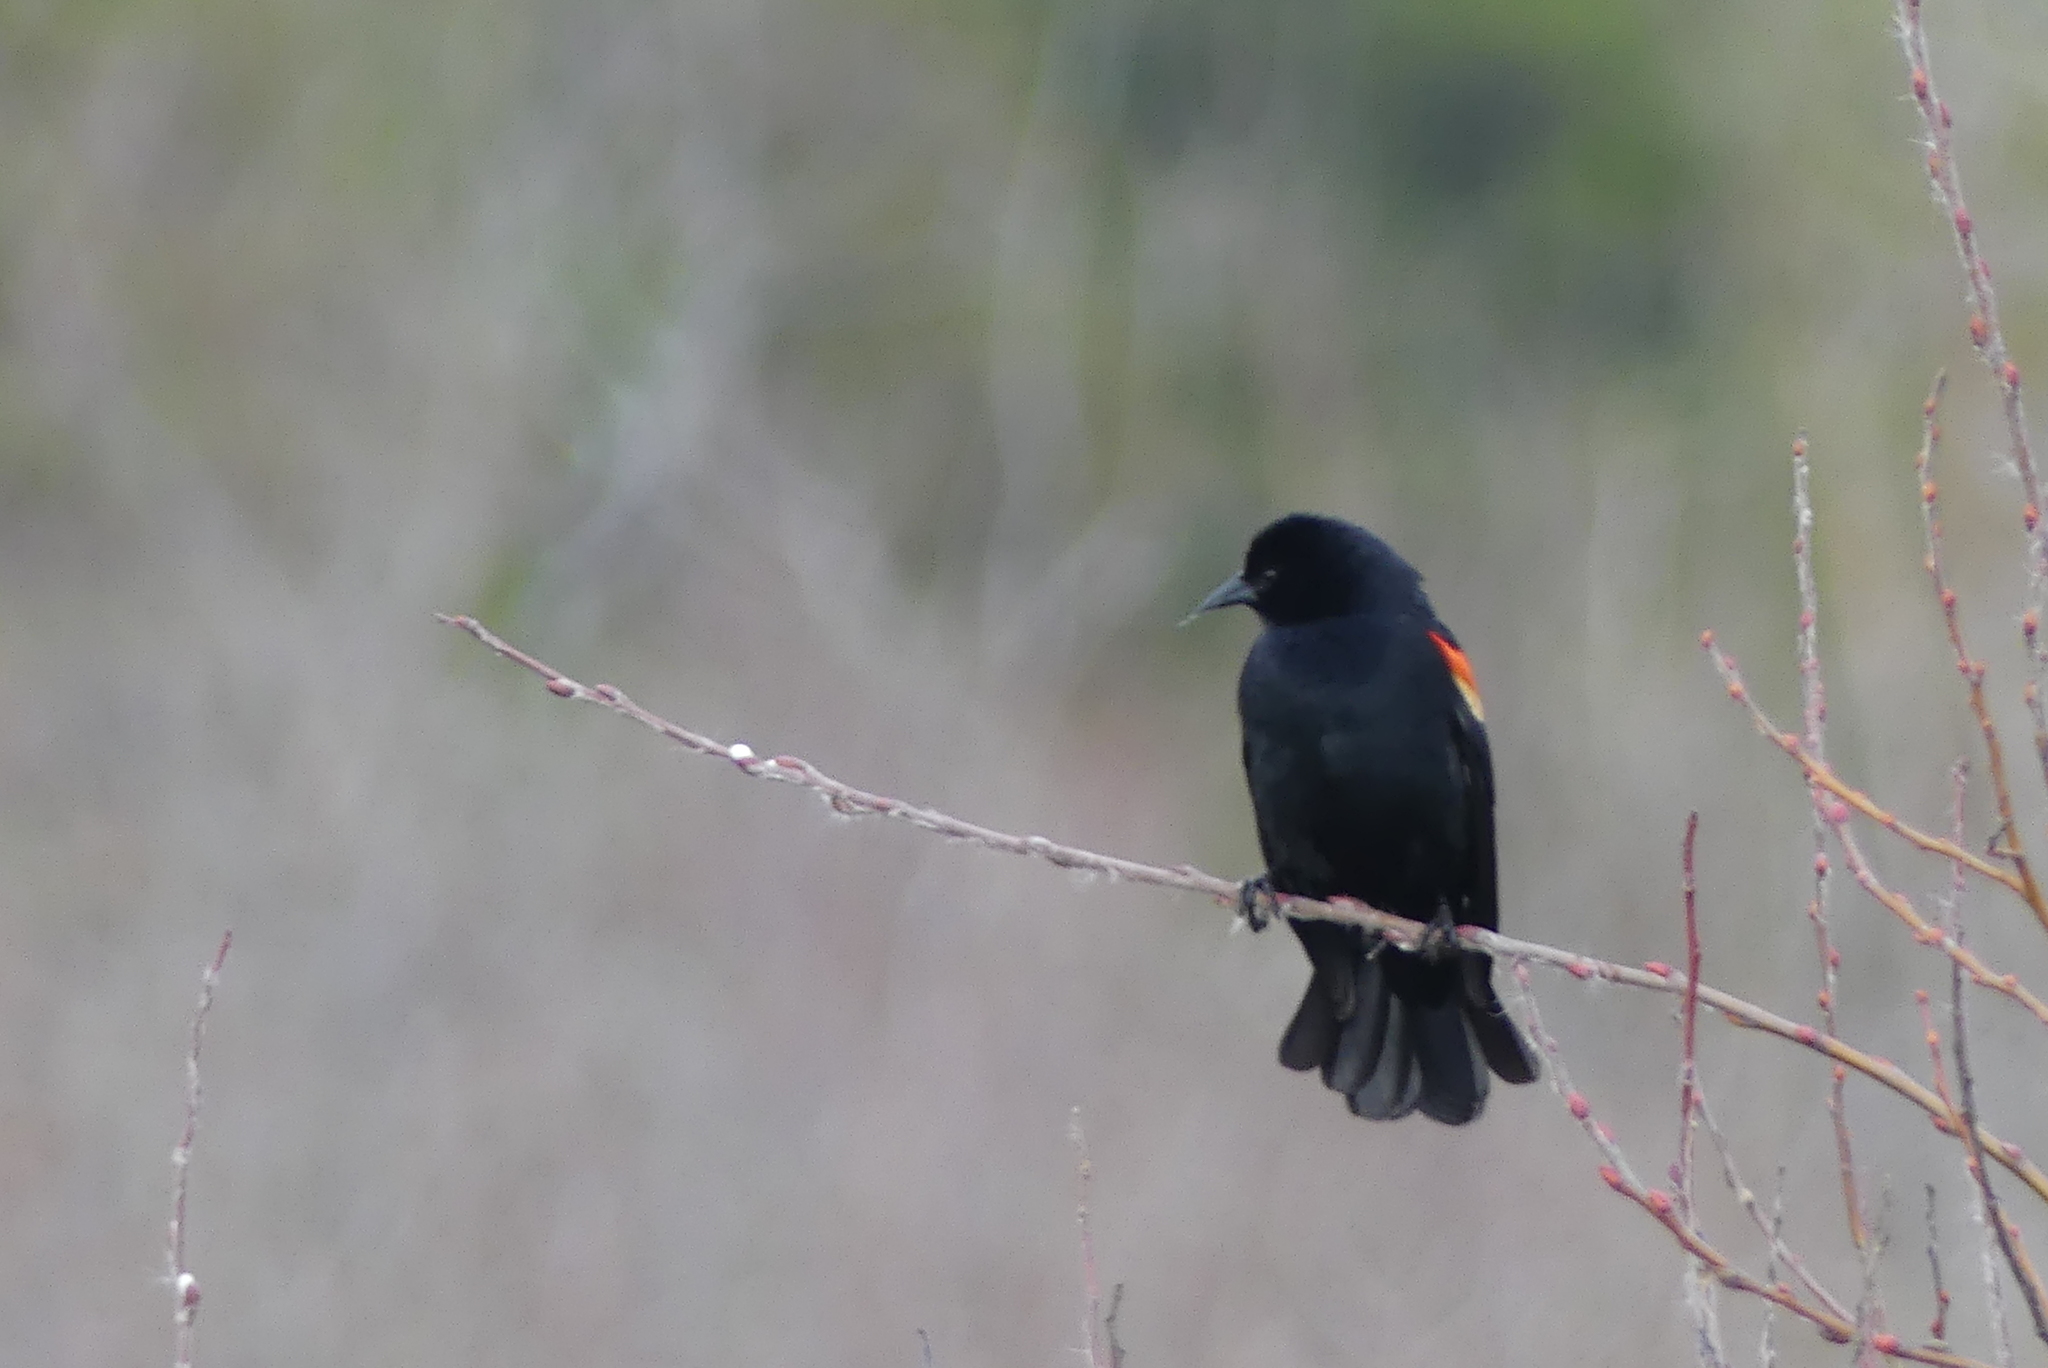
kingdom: Animalia
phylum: Chordata
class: Aves
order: Passeriformes
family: Icteridae
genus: Agelaius
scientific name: Agelaius phoeniceus
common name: Red-winged blackbird
